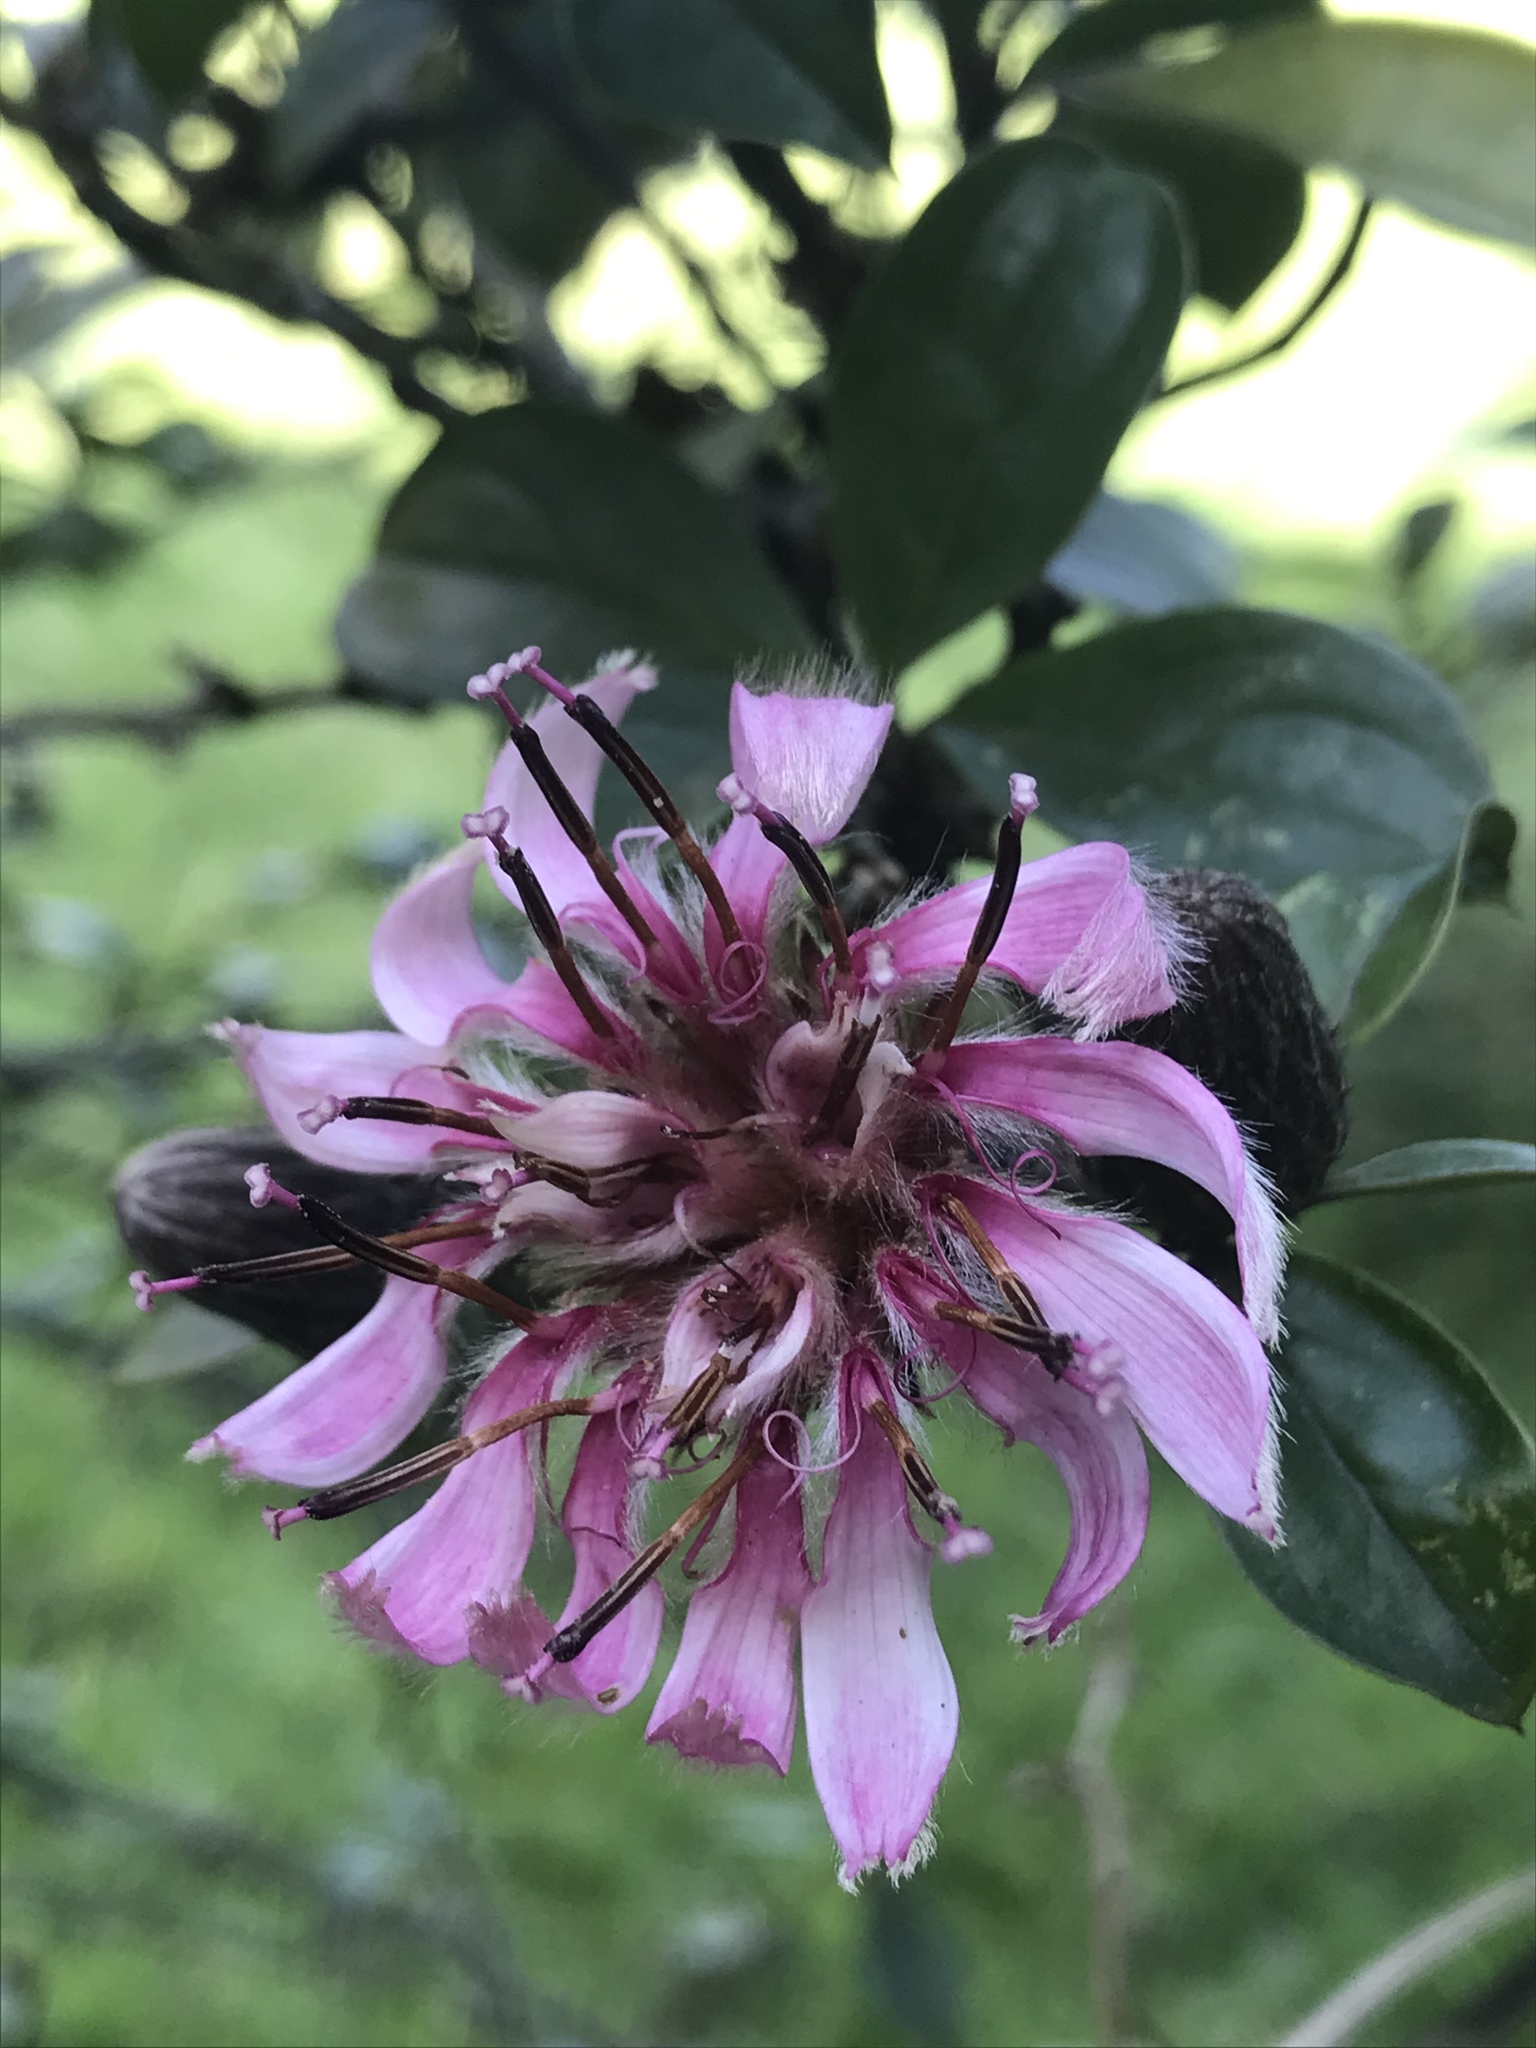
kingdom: Plantae
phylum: Tracheophyta
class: Magnoliopsida
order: Asterales
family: Asteraceae
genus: Barnadesia
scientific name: Barnadesia spinosa
